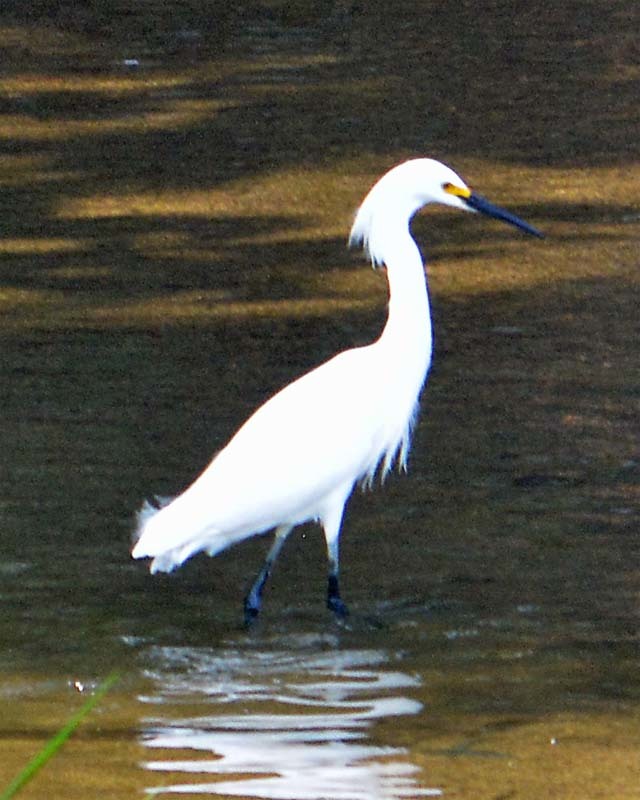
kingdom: Animalia
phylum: Chordata
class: Aves
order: Pelecaniformes
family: Ardeidae
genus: Egretta
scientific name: Egretta thula
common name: Snowy egret
